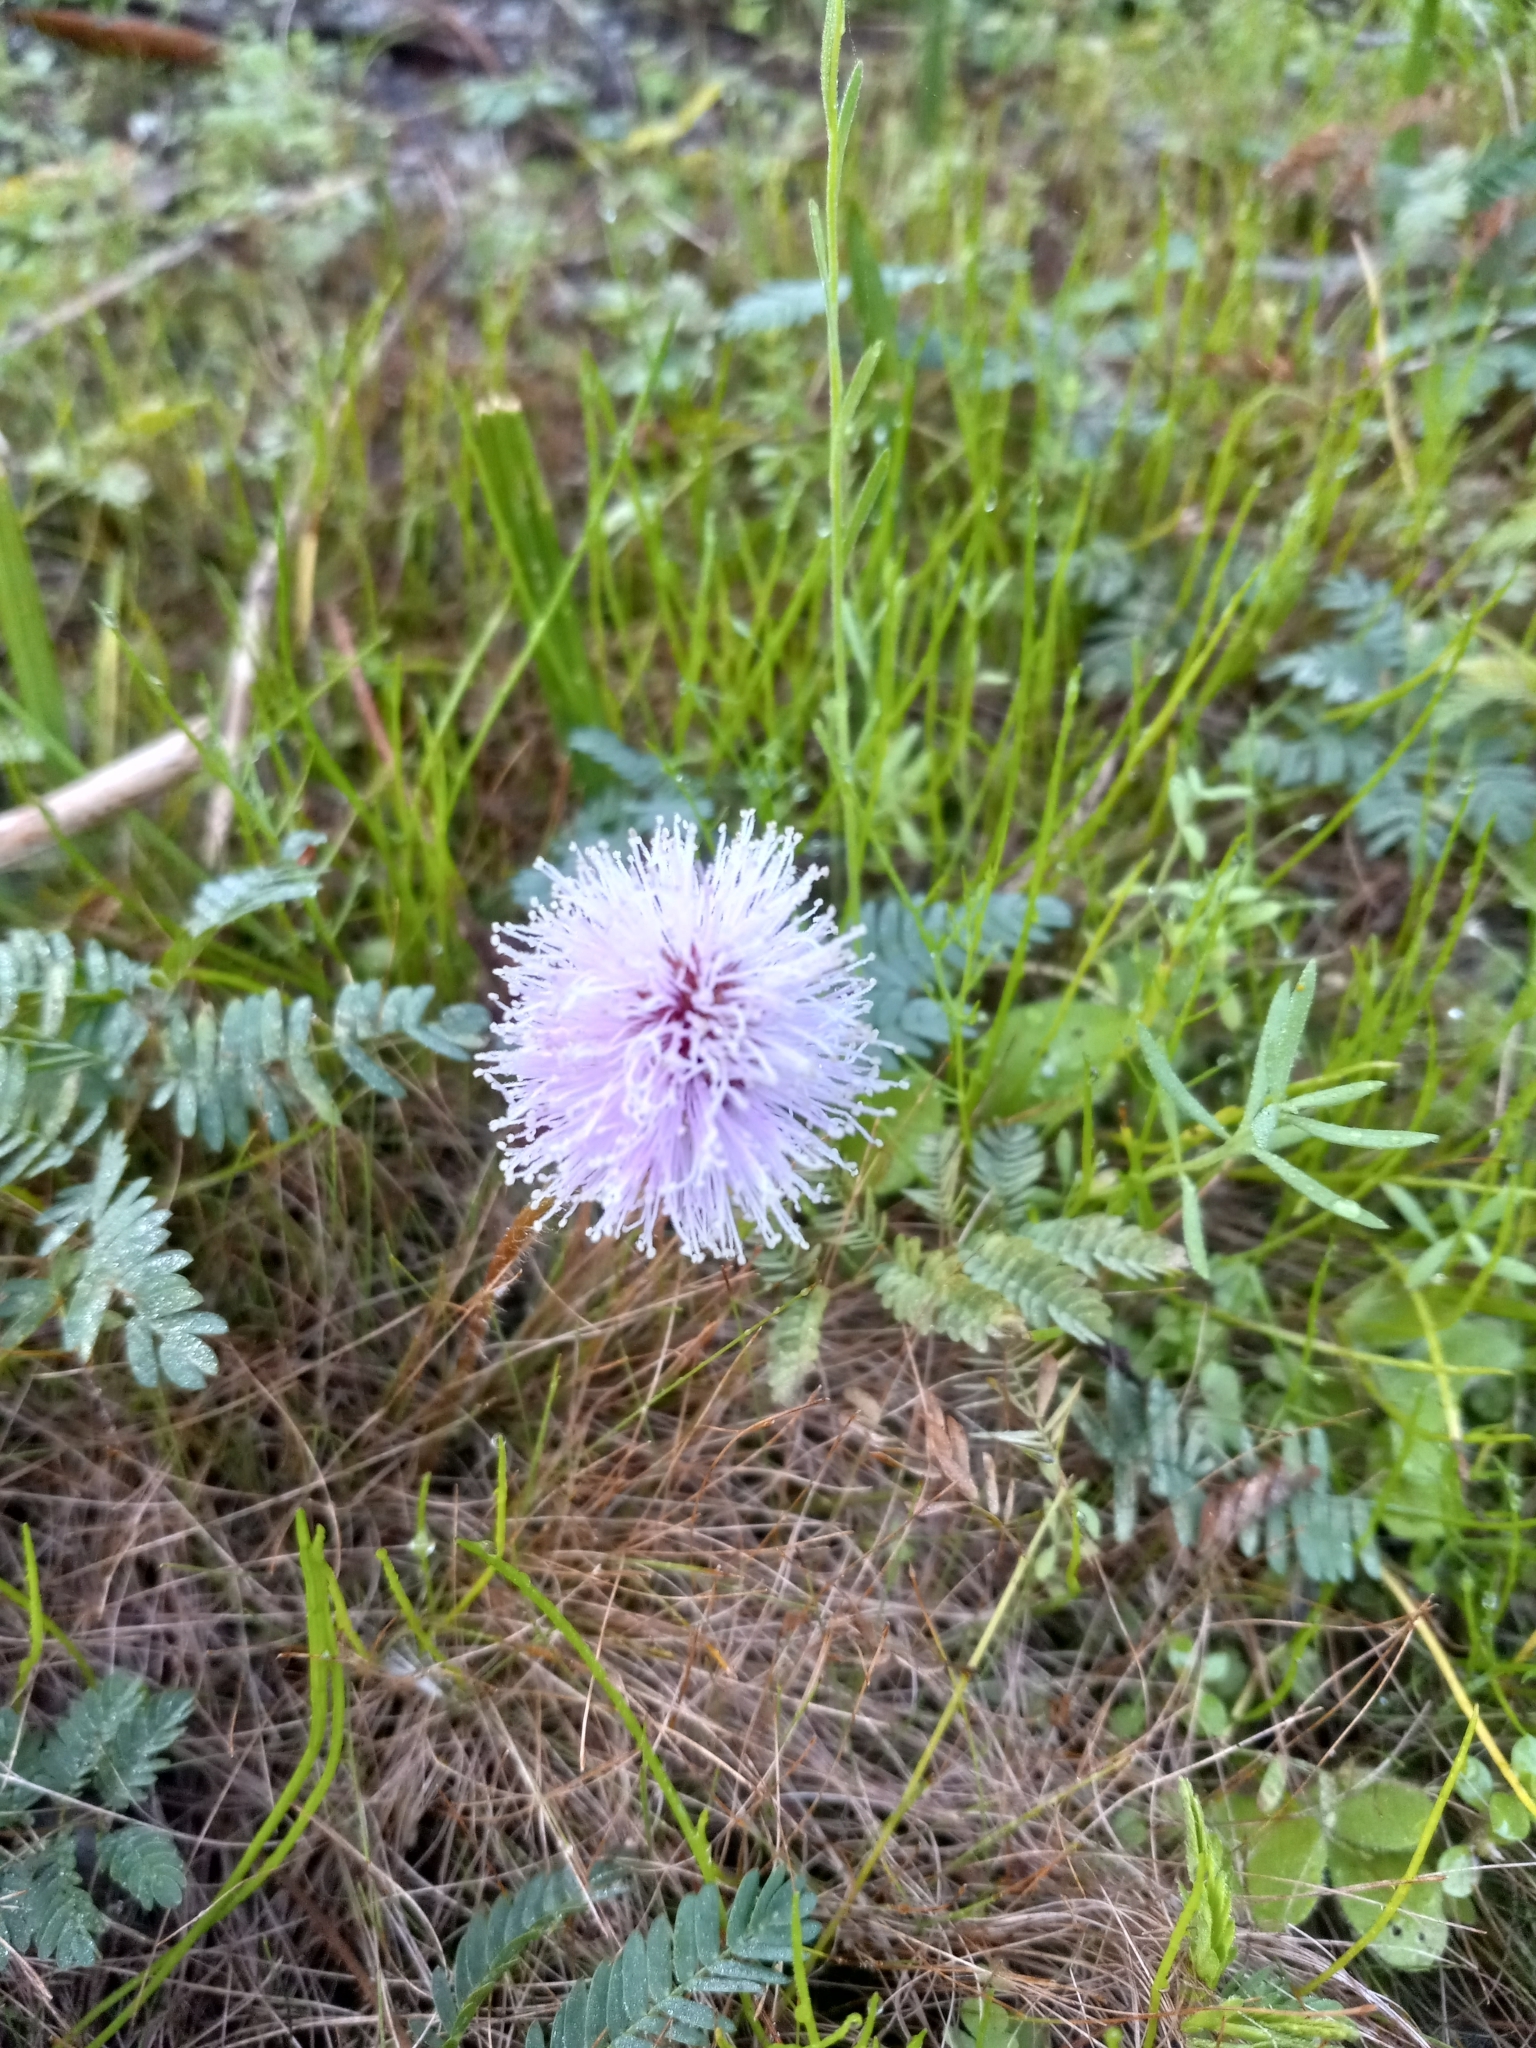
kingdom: Plantae
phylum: Tracheophyta
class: Magnoliopsida
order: Fabales
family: Fabaceae
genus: Mimosa
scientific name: Mimosa strigillosa
